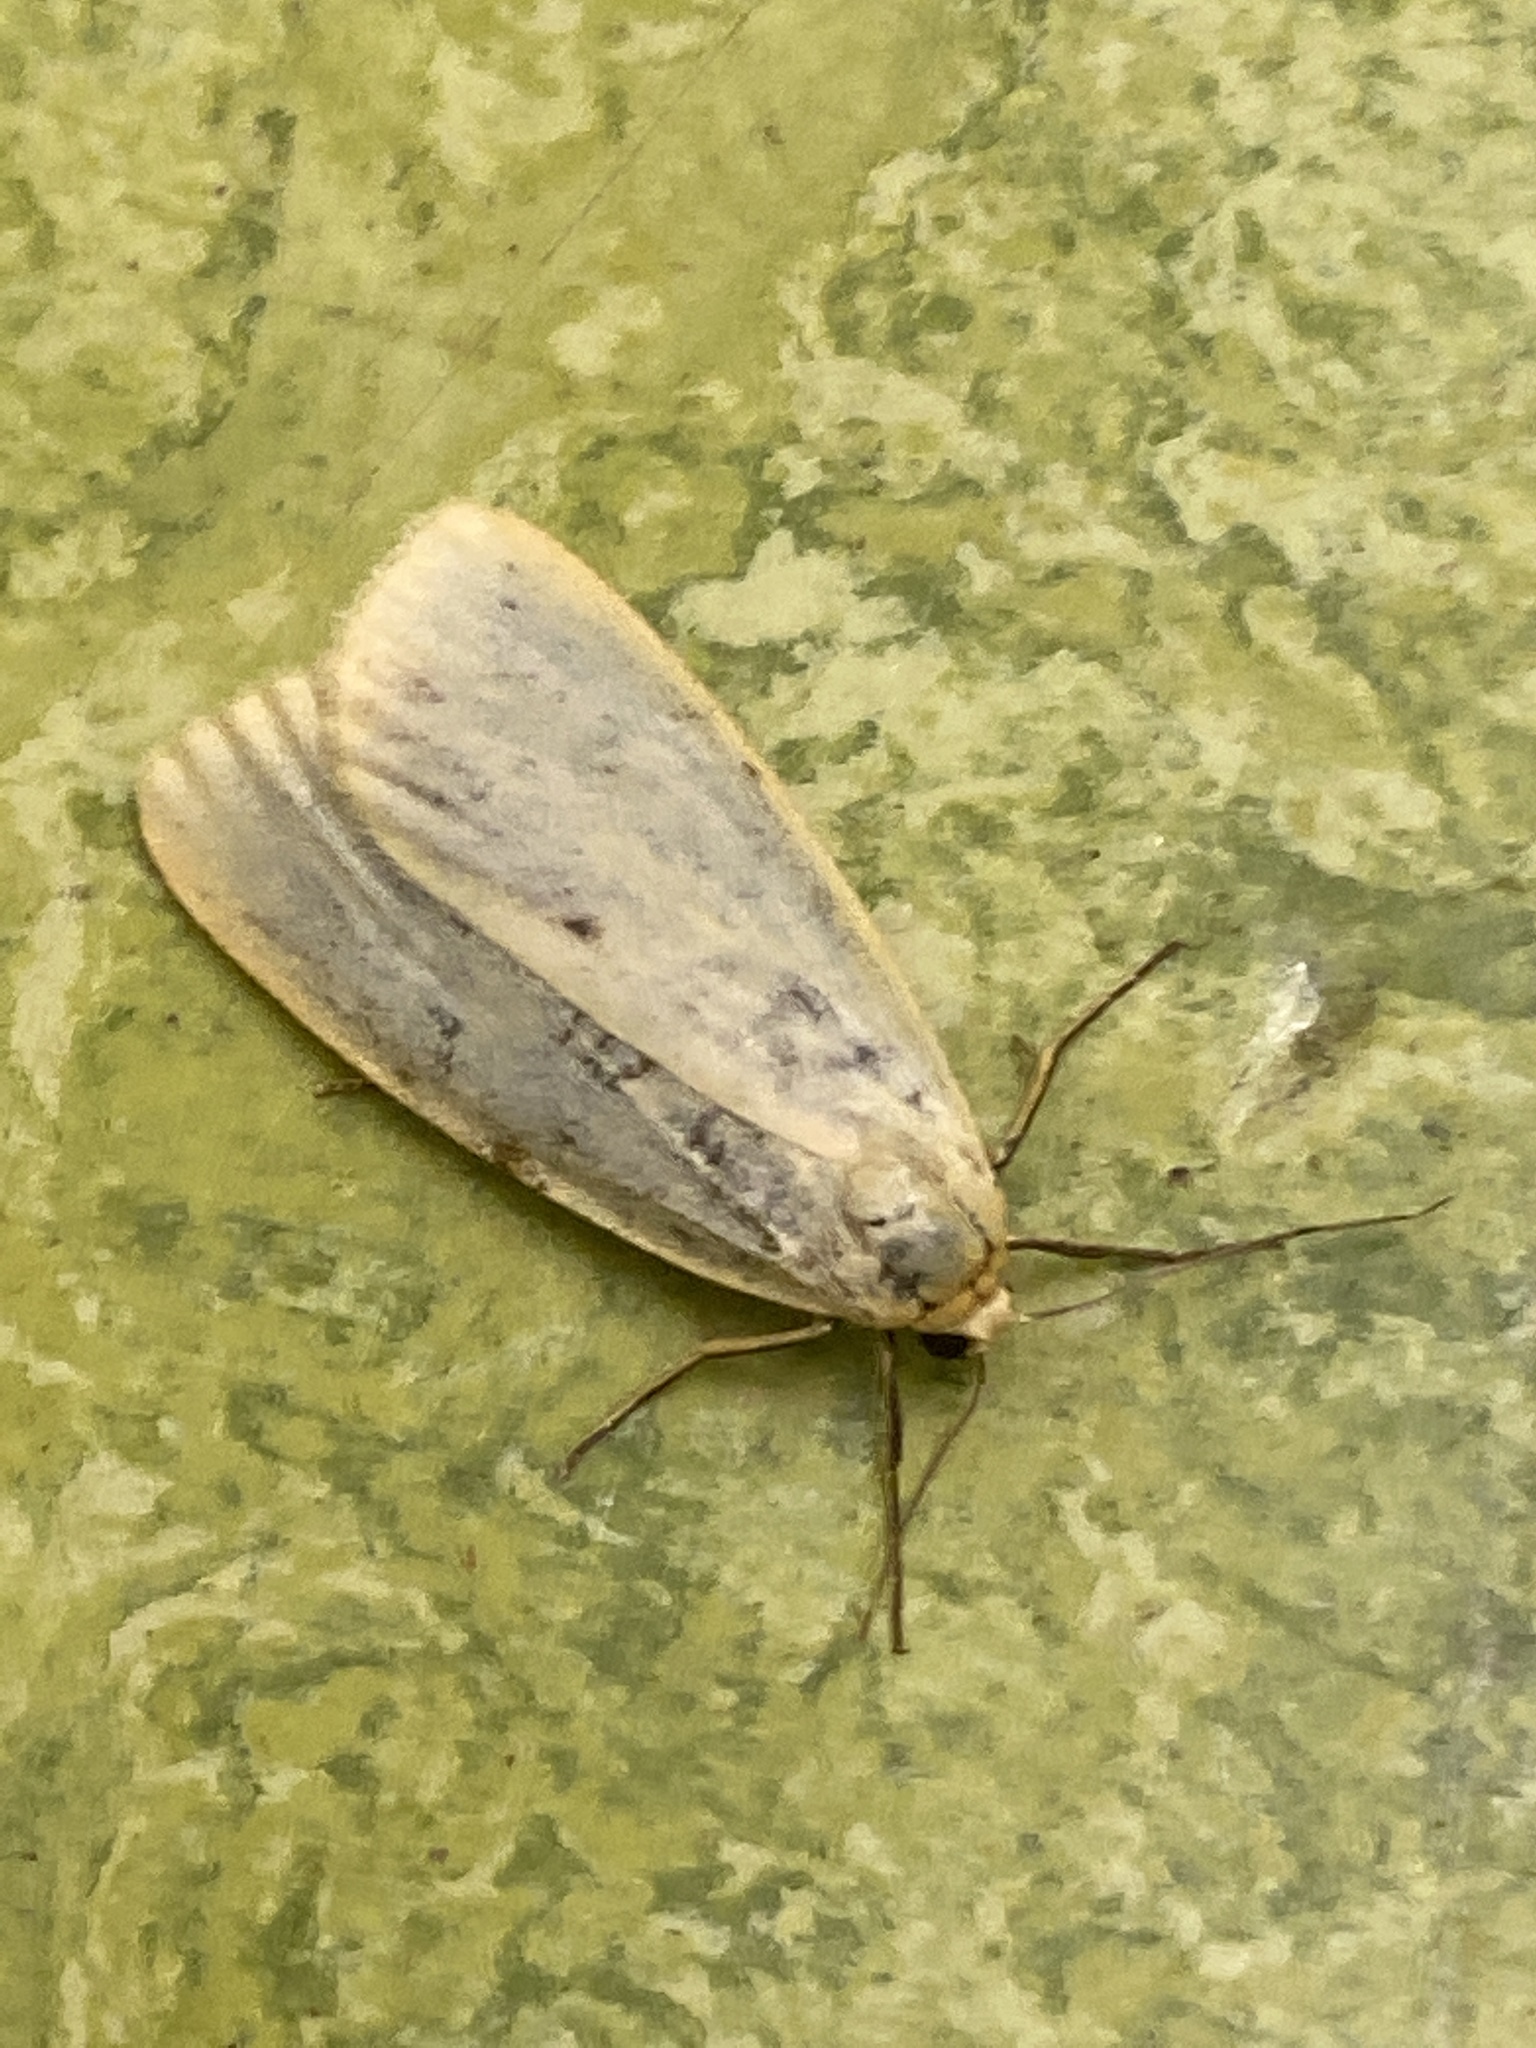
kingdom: Animalia
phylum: Arthropoda
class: Insecta
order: Lepidoptera
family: Erebidae
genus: Cybosia
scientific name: Cybosia mesomella
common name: Four-dotted footman
